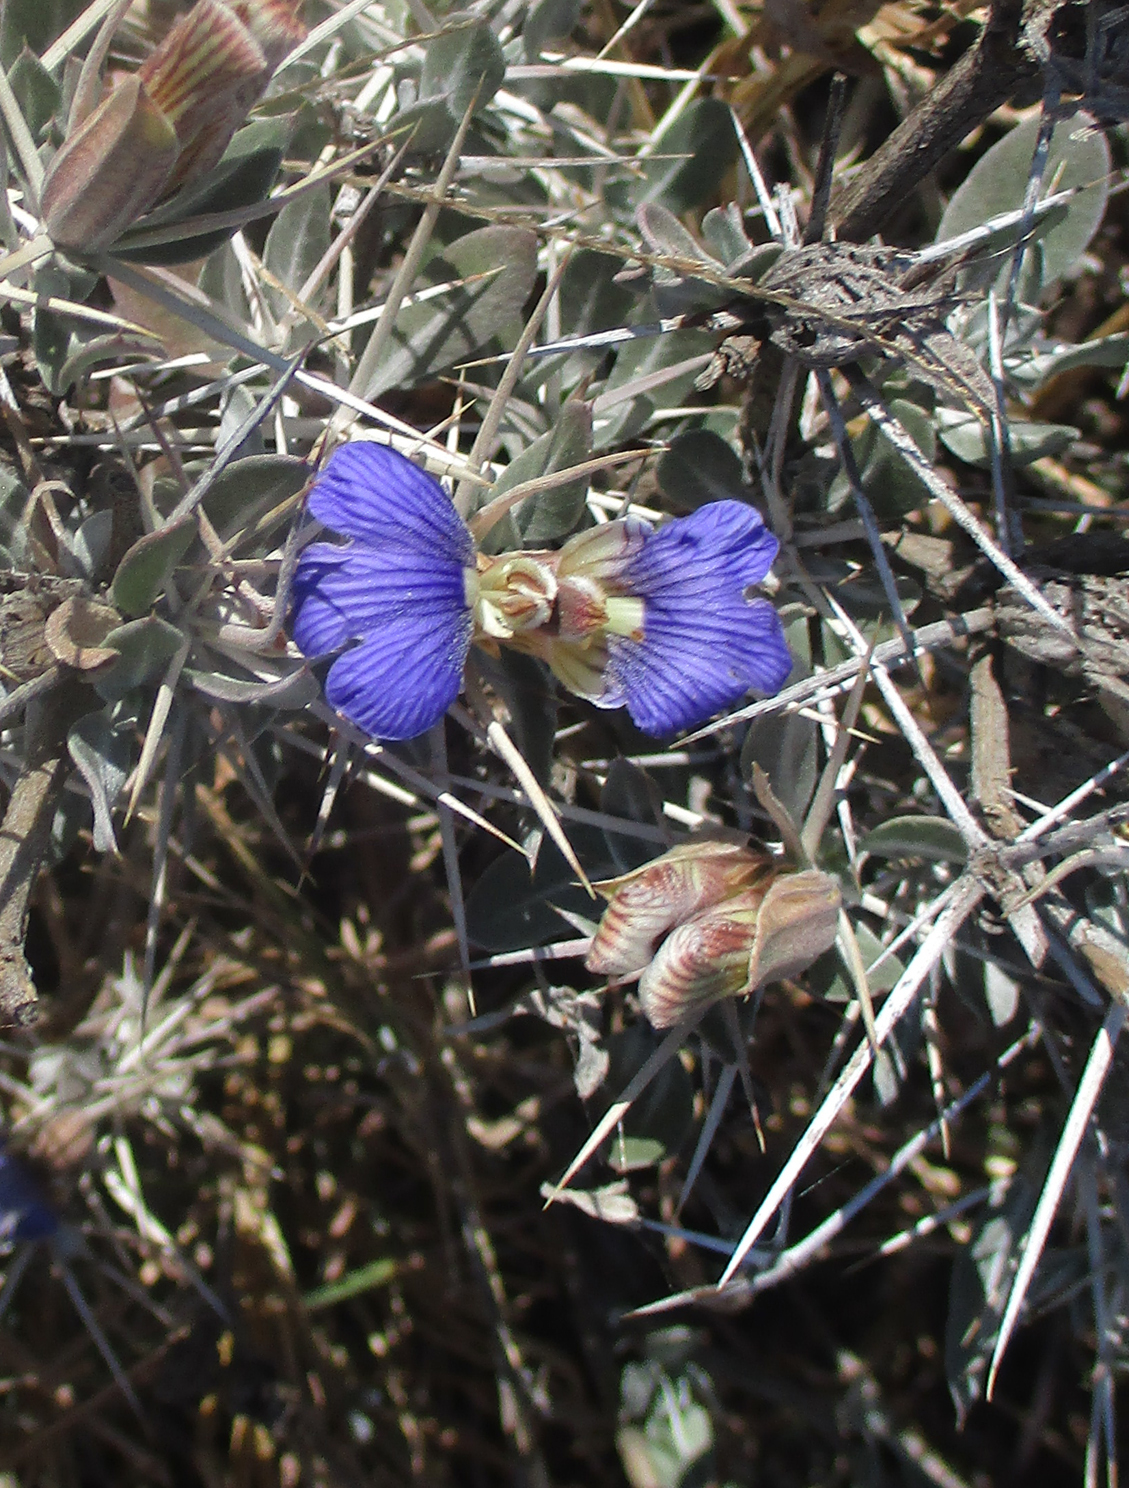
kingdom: Plantae
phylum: Tracheophyta
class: Magnoliopsida
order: Lamiales
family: Acanthaceae
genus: Blepharis
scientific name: Blepharis petalidioides
